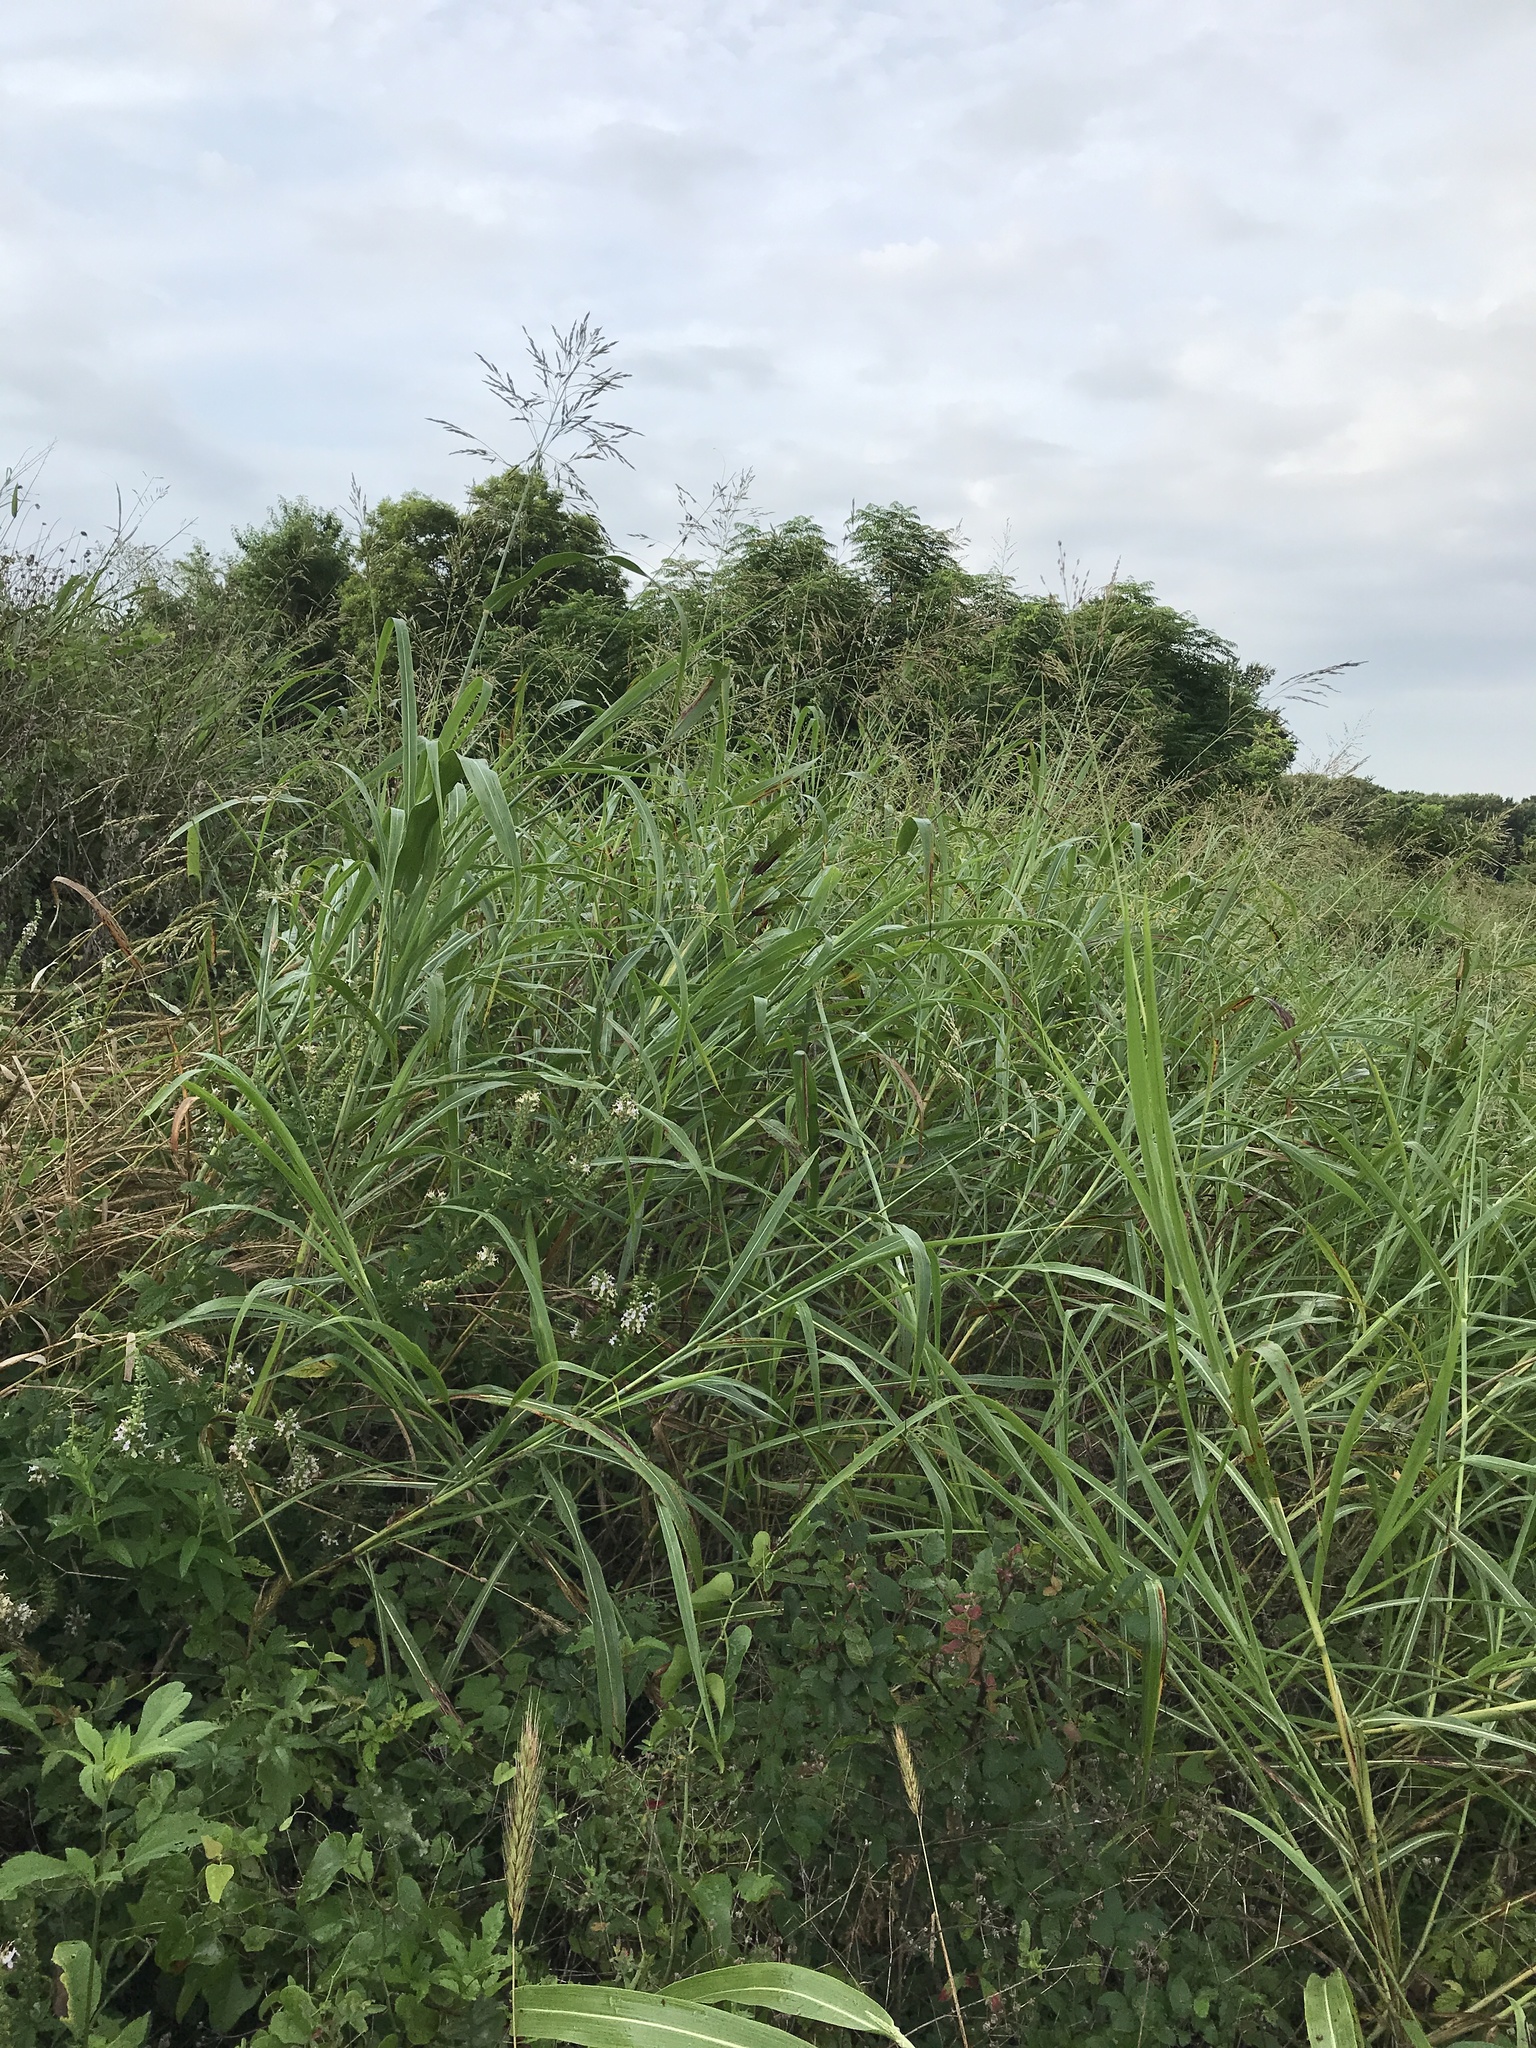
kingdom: Plantae
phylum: Tracheophyta
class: Liliopsida
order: Poales
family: Poaceae
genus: Sorghum
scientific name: Sorghum halepense
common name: Johnson-grass
